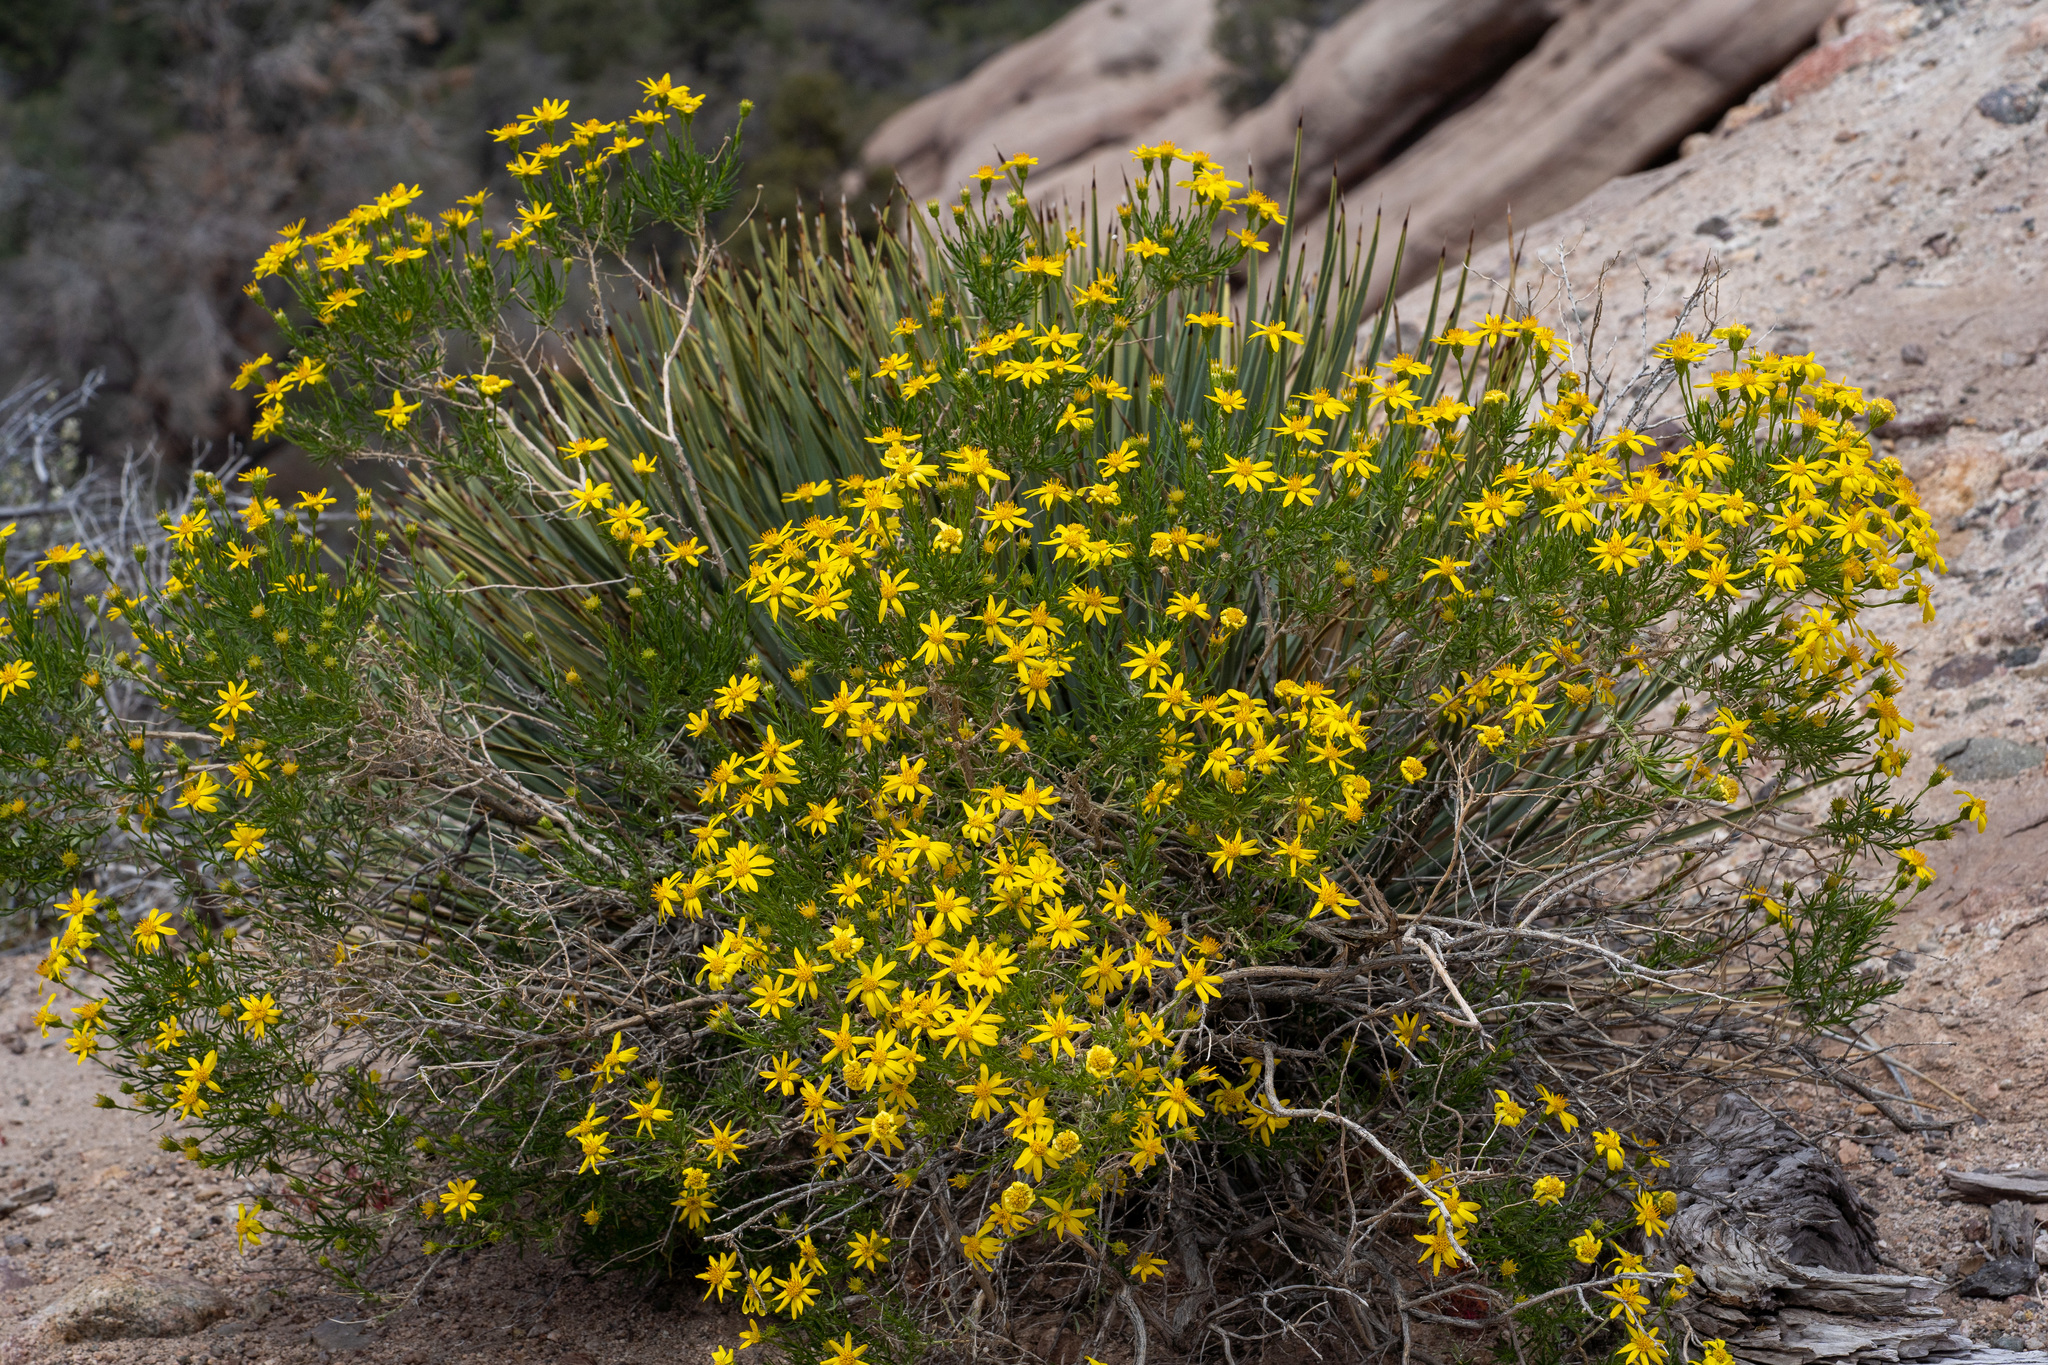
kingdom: Plantae
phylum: Tracheophyta
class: Magnoliopsida
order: Asterales
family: Asteraceae
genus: Ericameria
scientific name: Ericameria linearifolia
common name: Interior goldenbush
